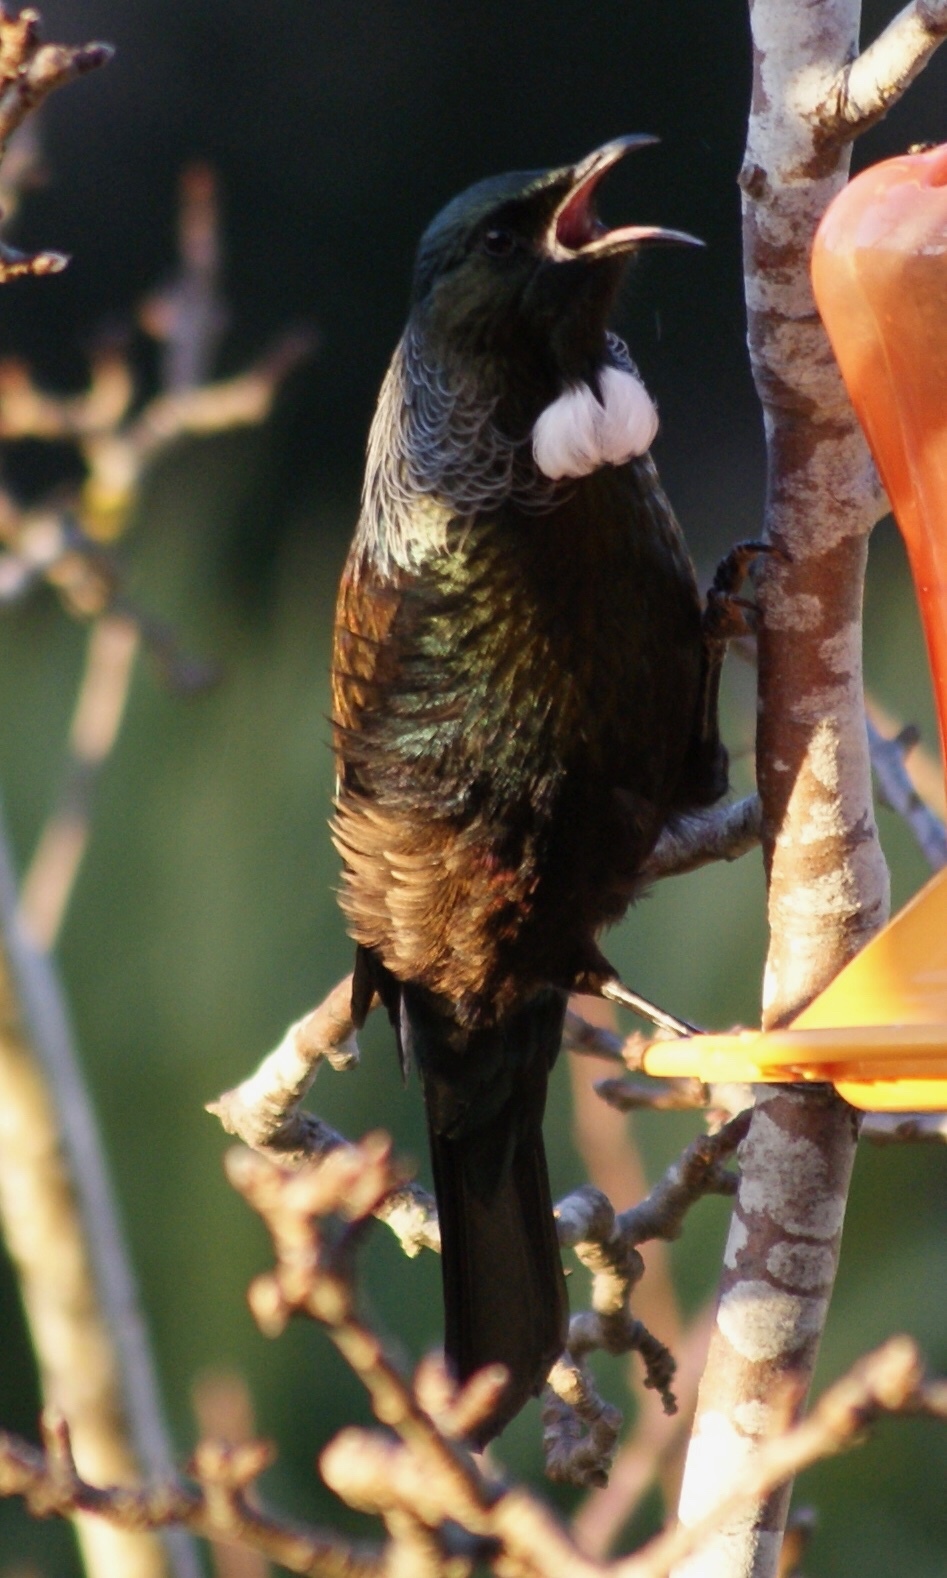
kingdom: Animalia
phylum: Chordata
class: Aves
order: Passeriformes
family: Meliphagidae
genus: Prosthemadera
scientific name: Prosthemadera novaeseelandiae
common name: Tui
